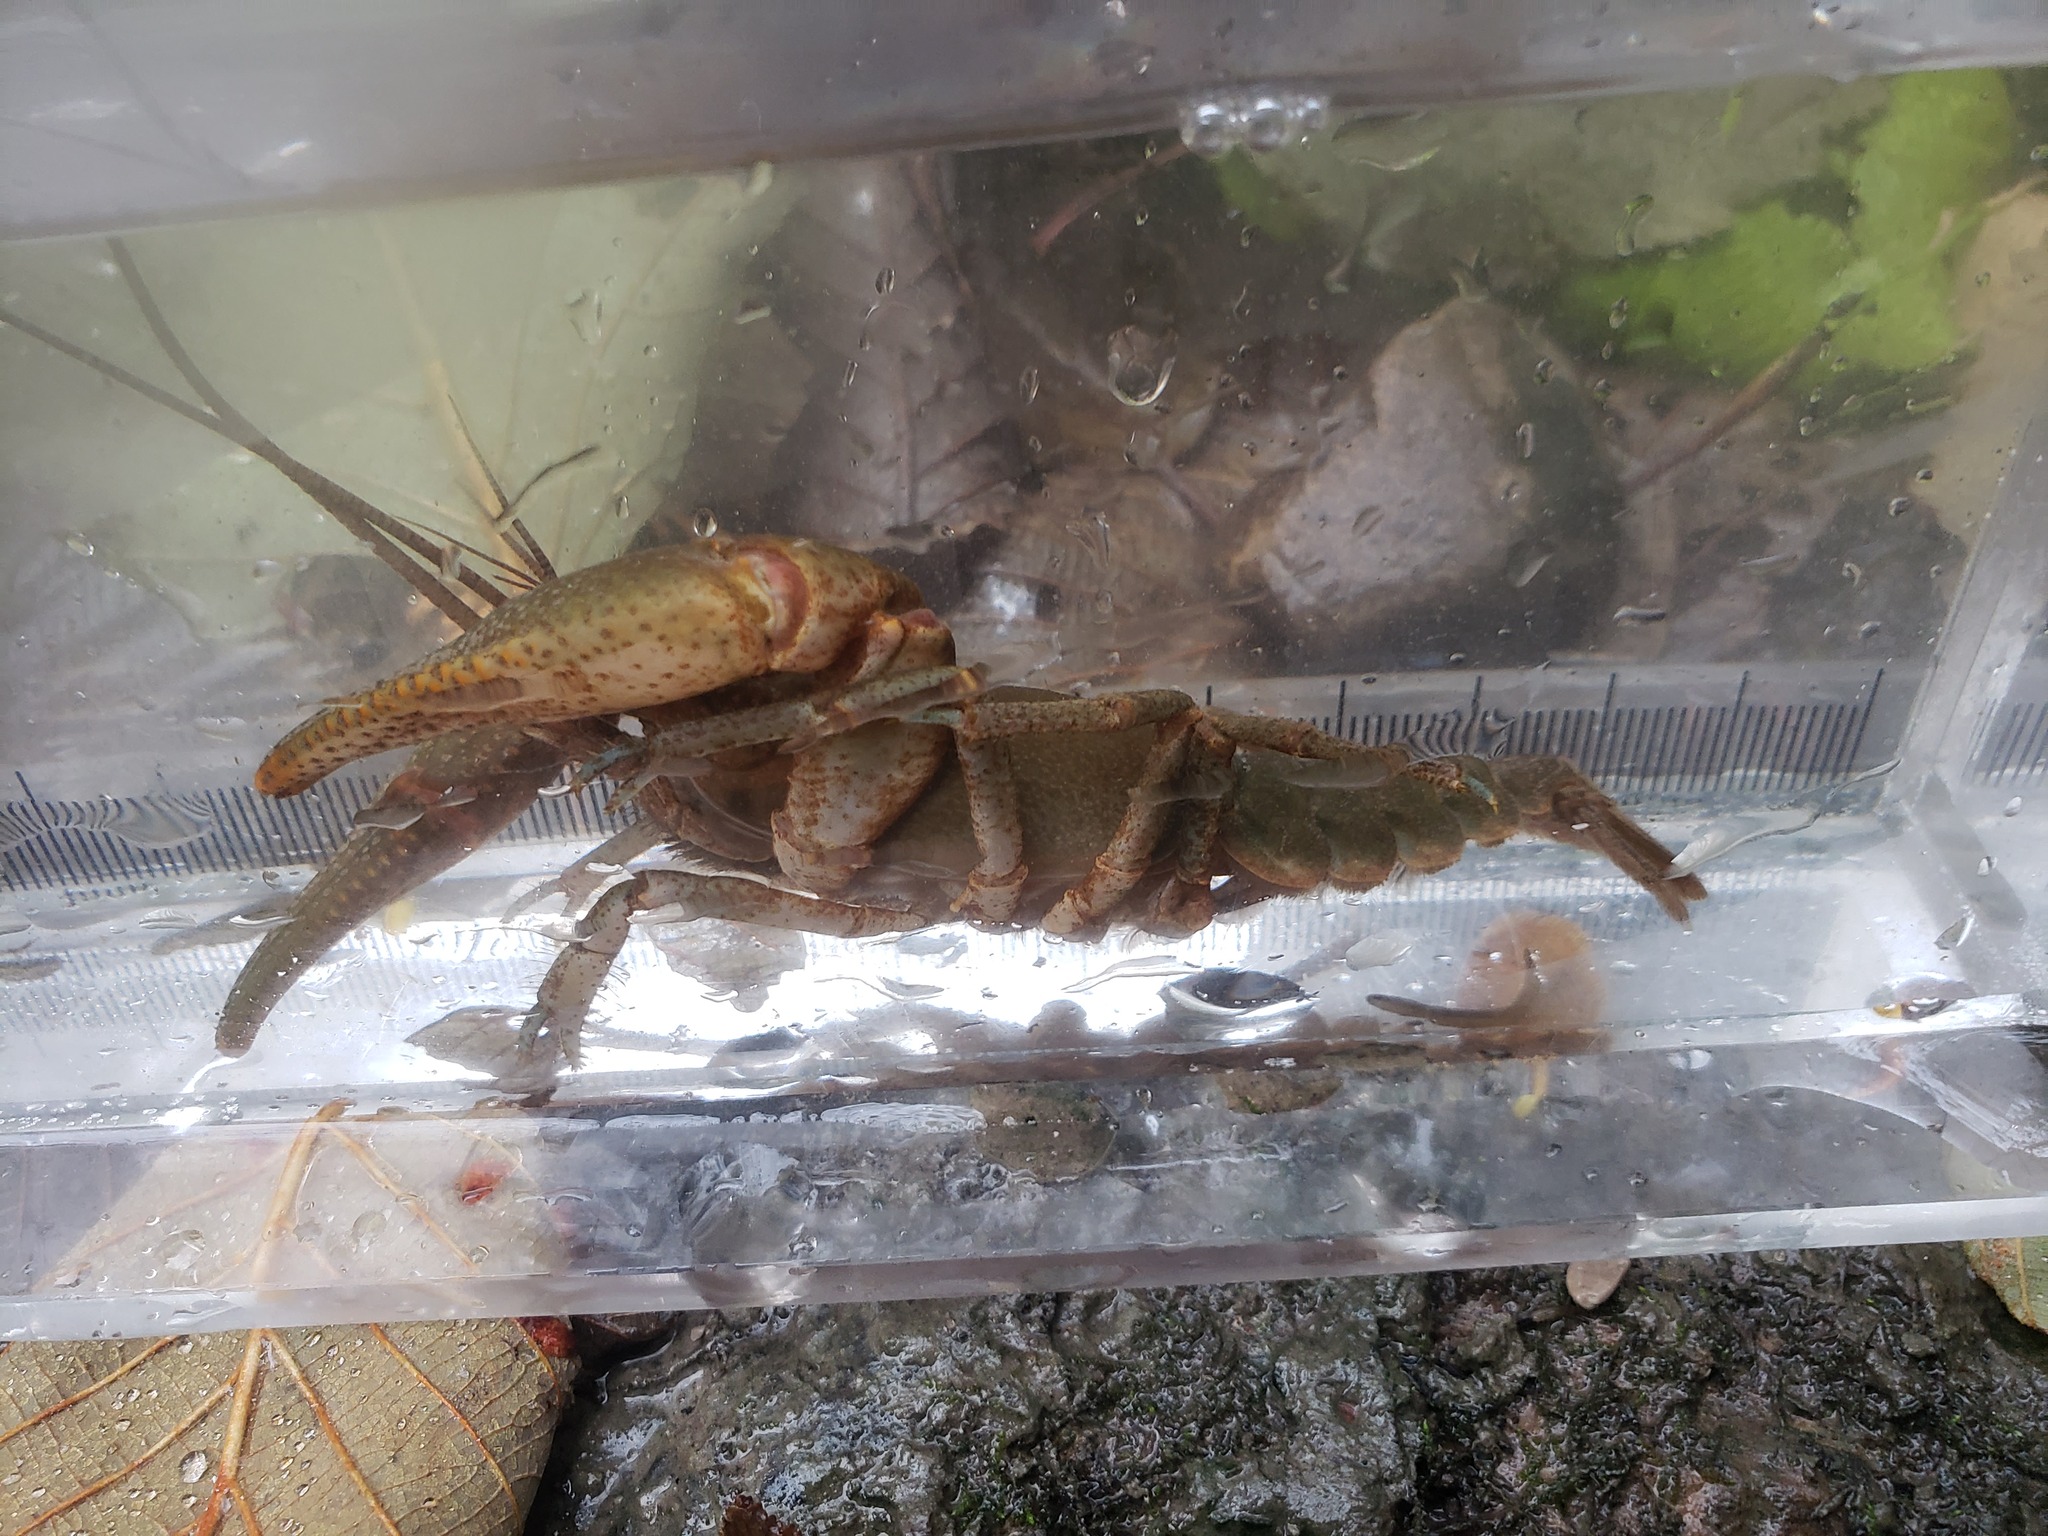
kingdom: Animalia
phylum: Arthropoda
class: Malacostraca
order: Decapoda
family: Cambaridae
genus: Cambarus
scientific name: Cambarus robustus
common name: Big water crayfish
